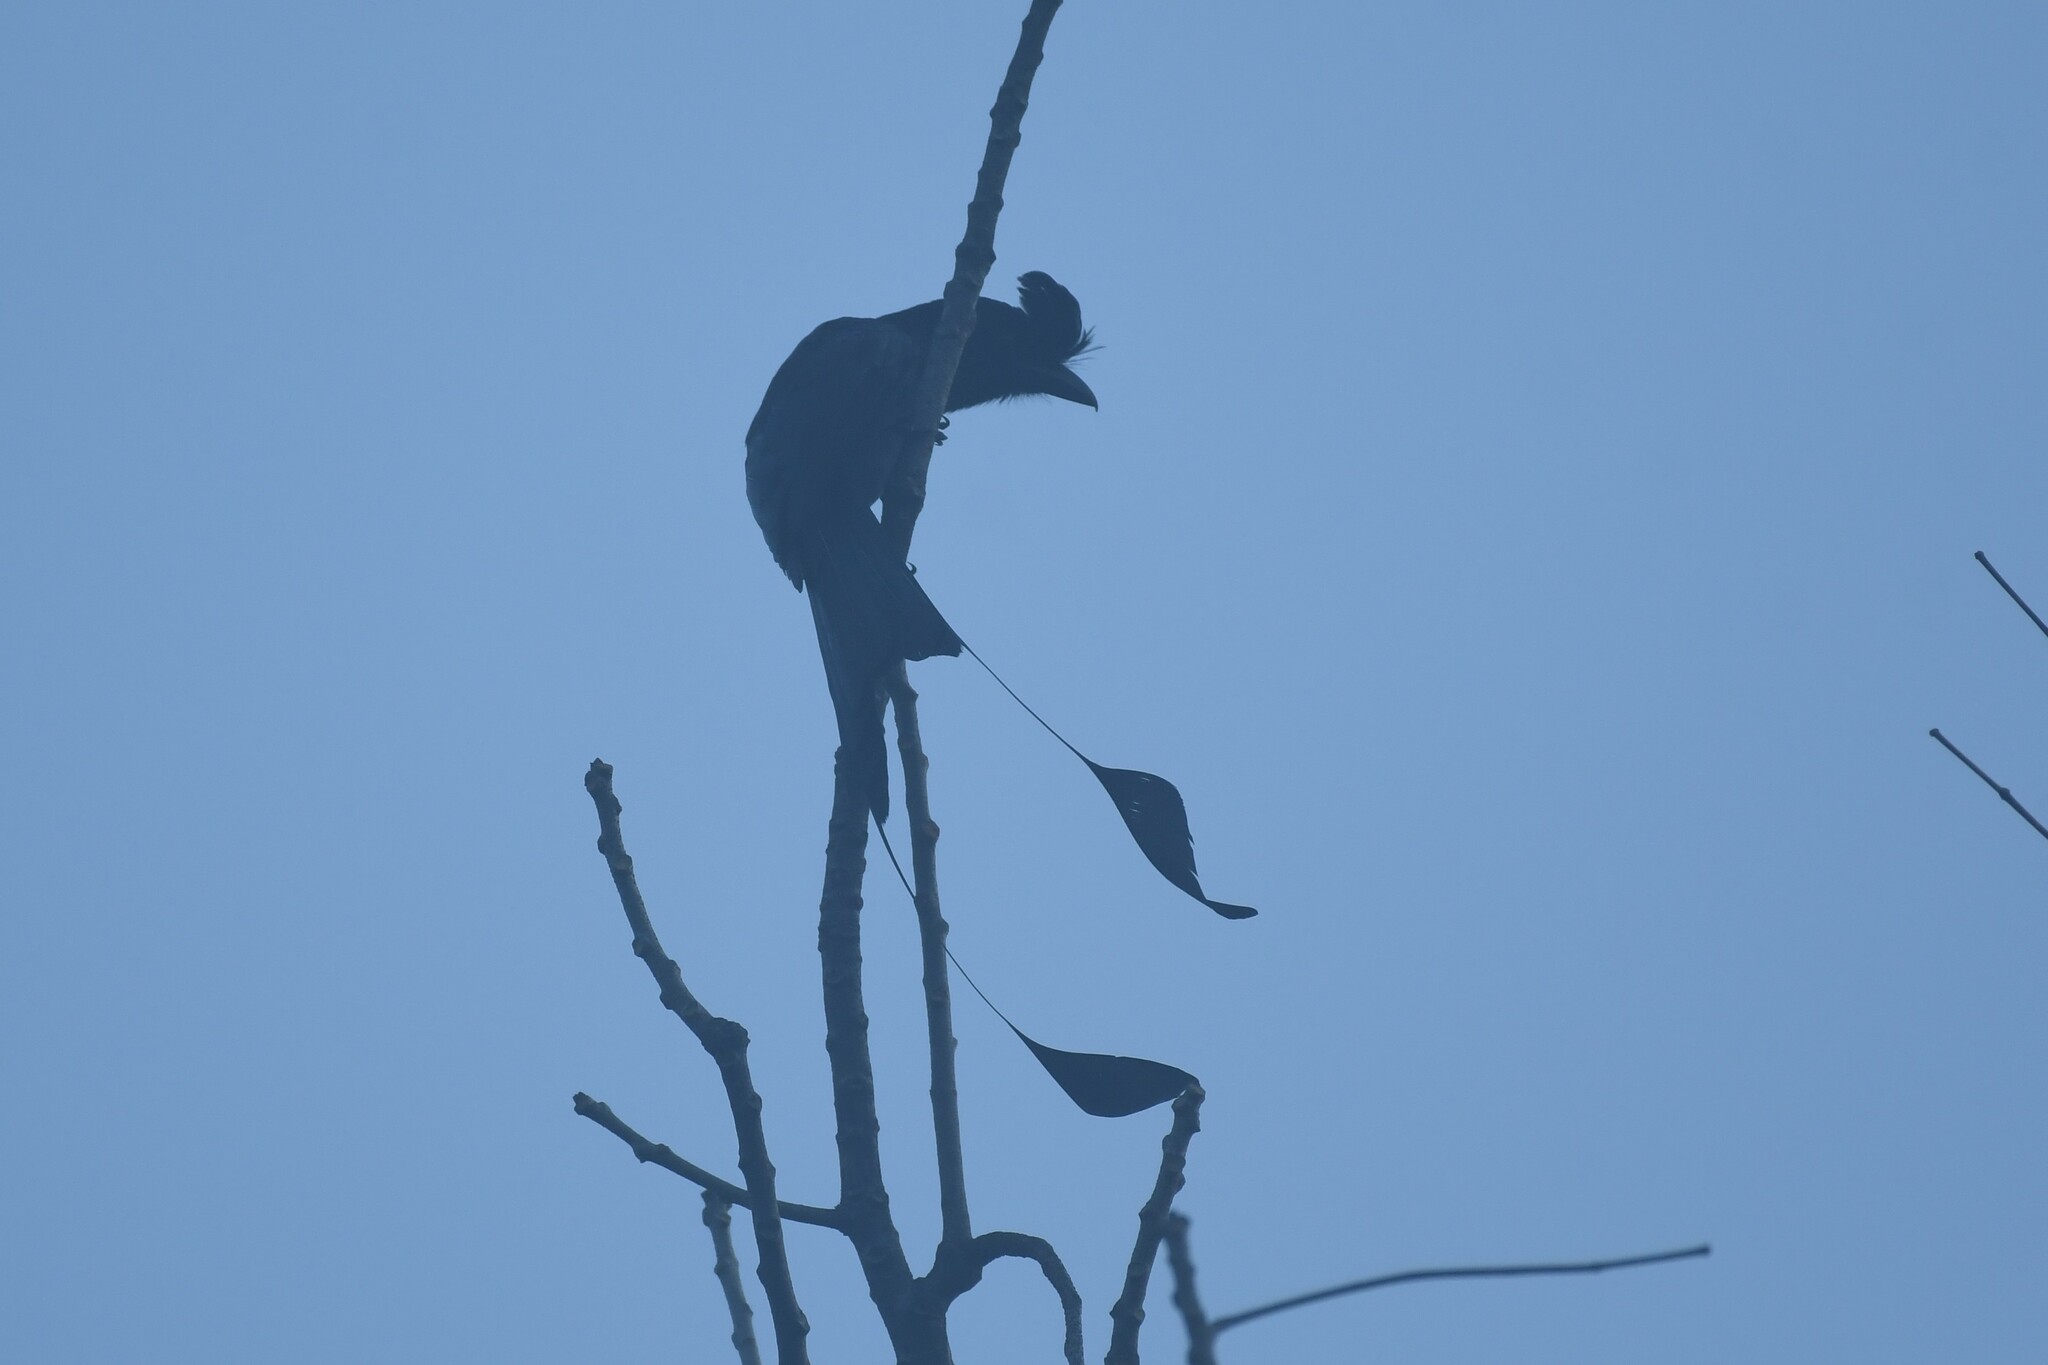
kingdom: Animalia
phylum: Chordata
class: Aves
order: Passeriformes
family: Dicruridae
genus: Dicrurus
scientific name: Dicrurus paradiseus
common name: Greater racket-tailed drongo
